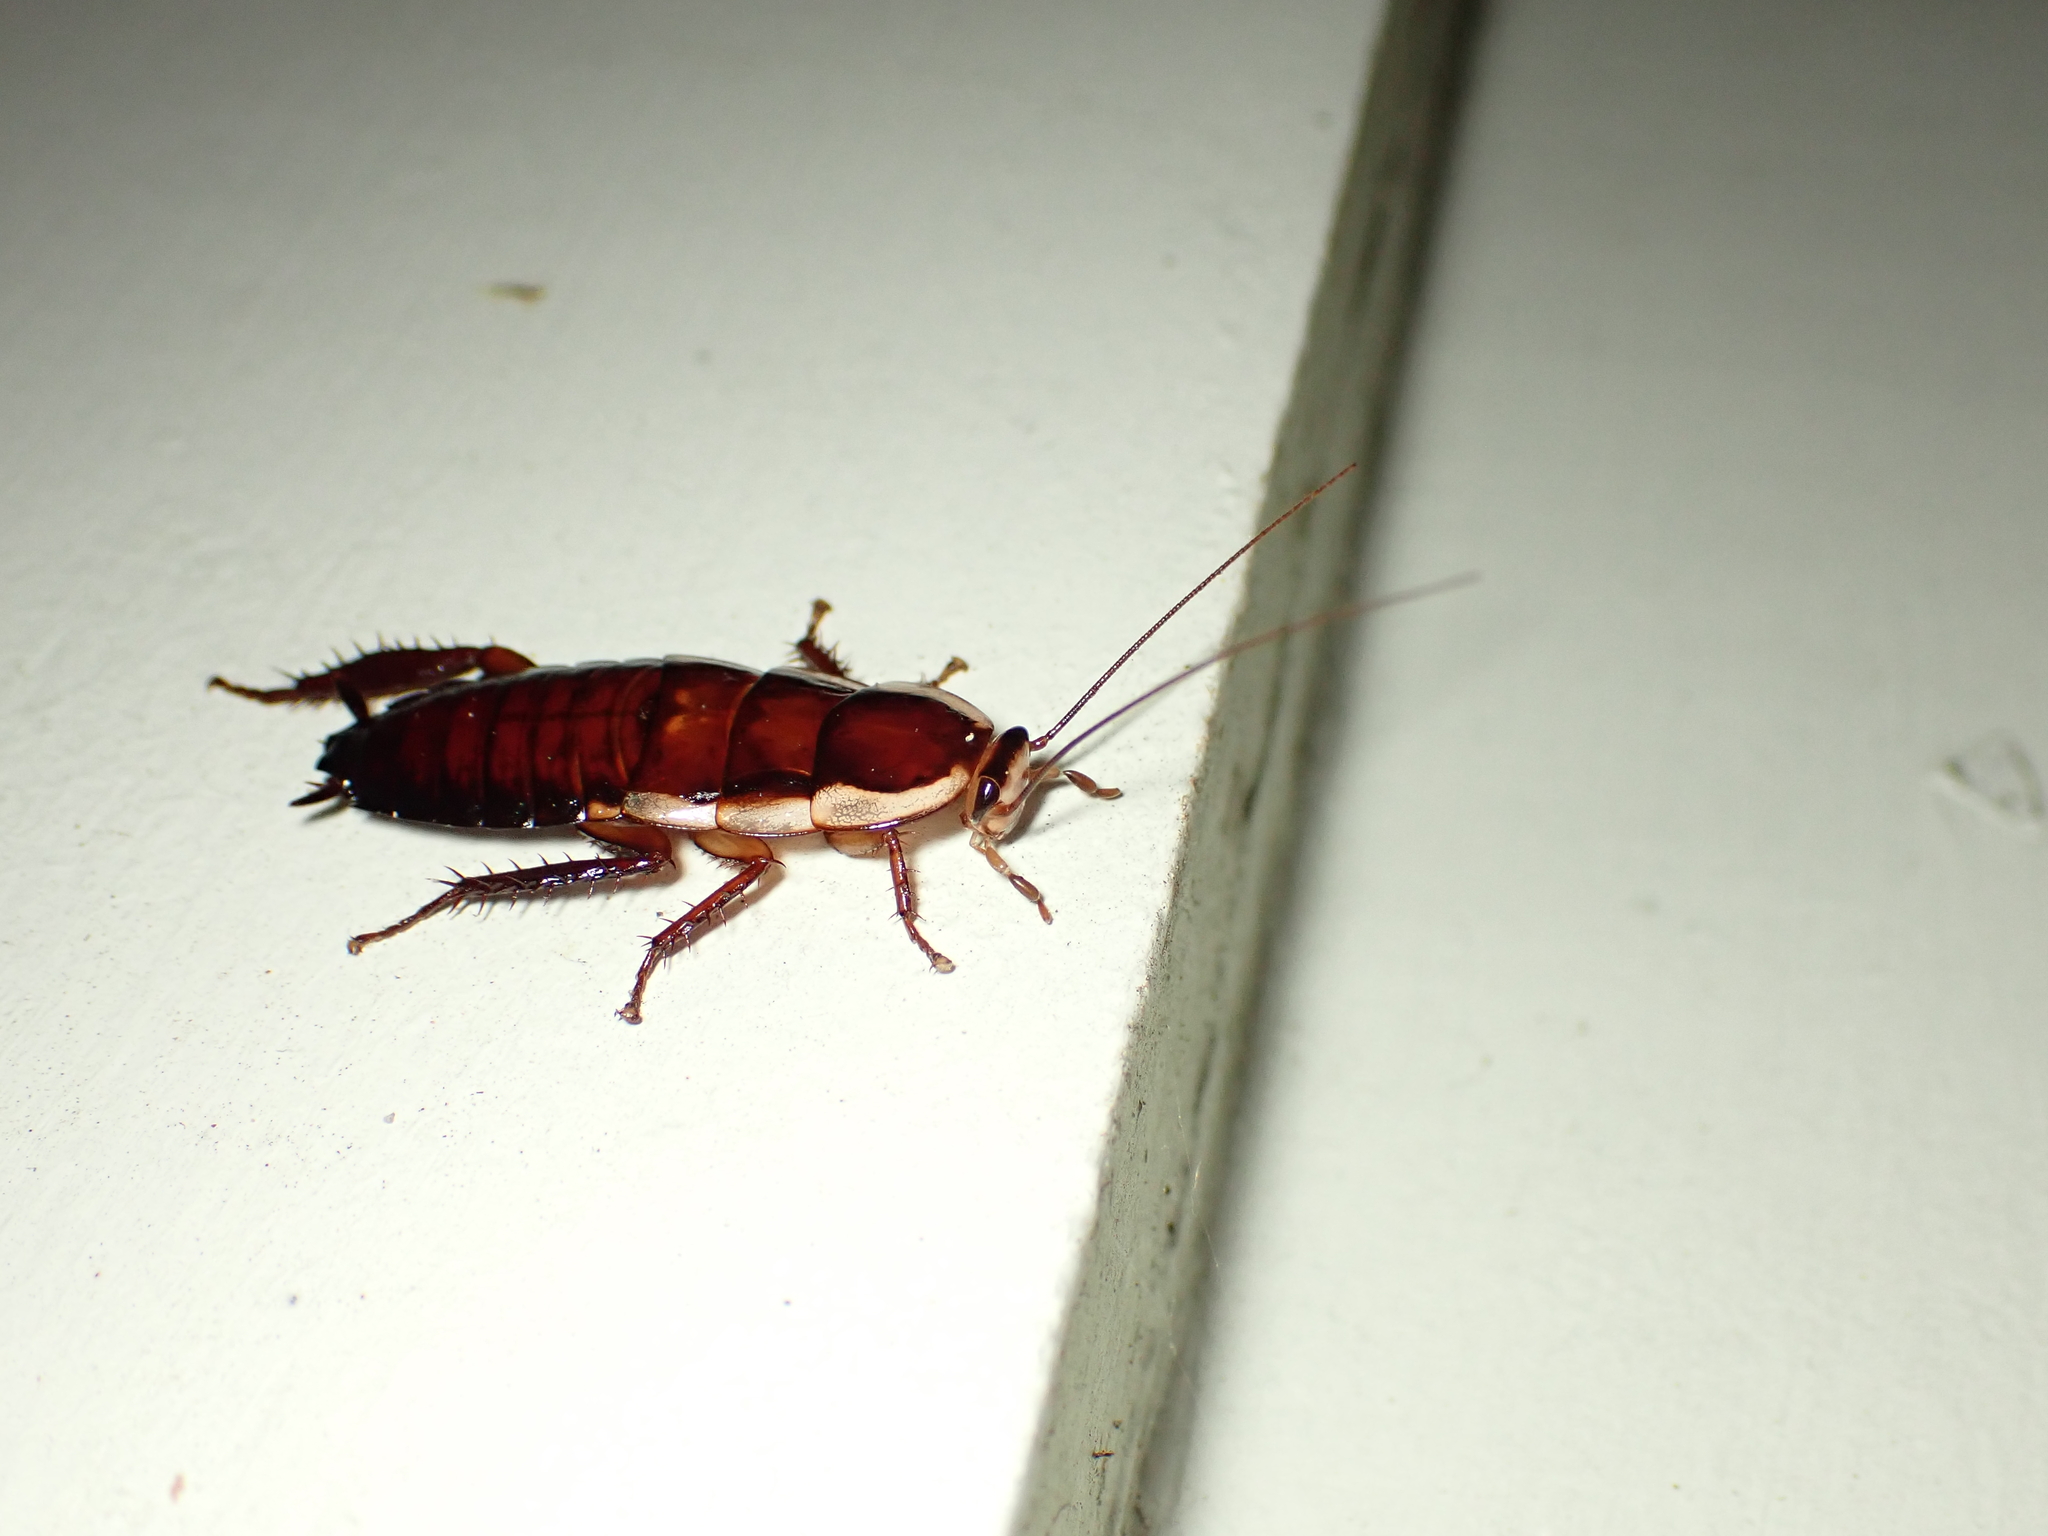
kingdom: Animalia
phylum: Arthropoda
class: Insecta
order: Blattodea
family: Blattidae
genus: Drymaplaneta
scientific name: Drymaplaneta semivitta
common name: Gisborne cockroach
